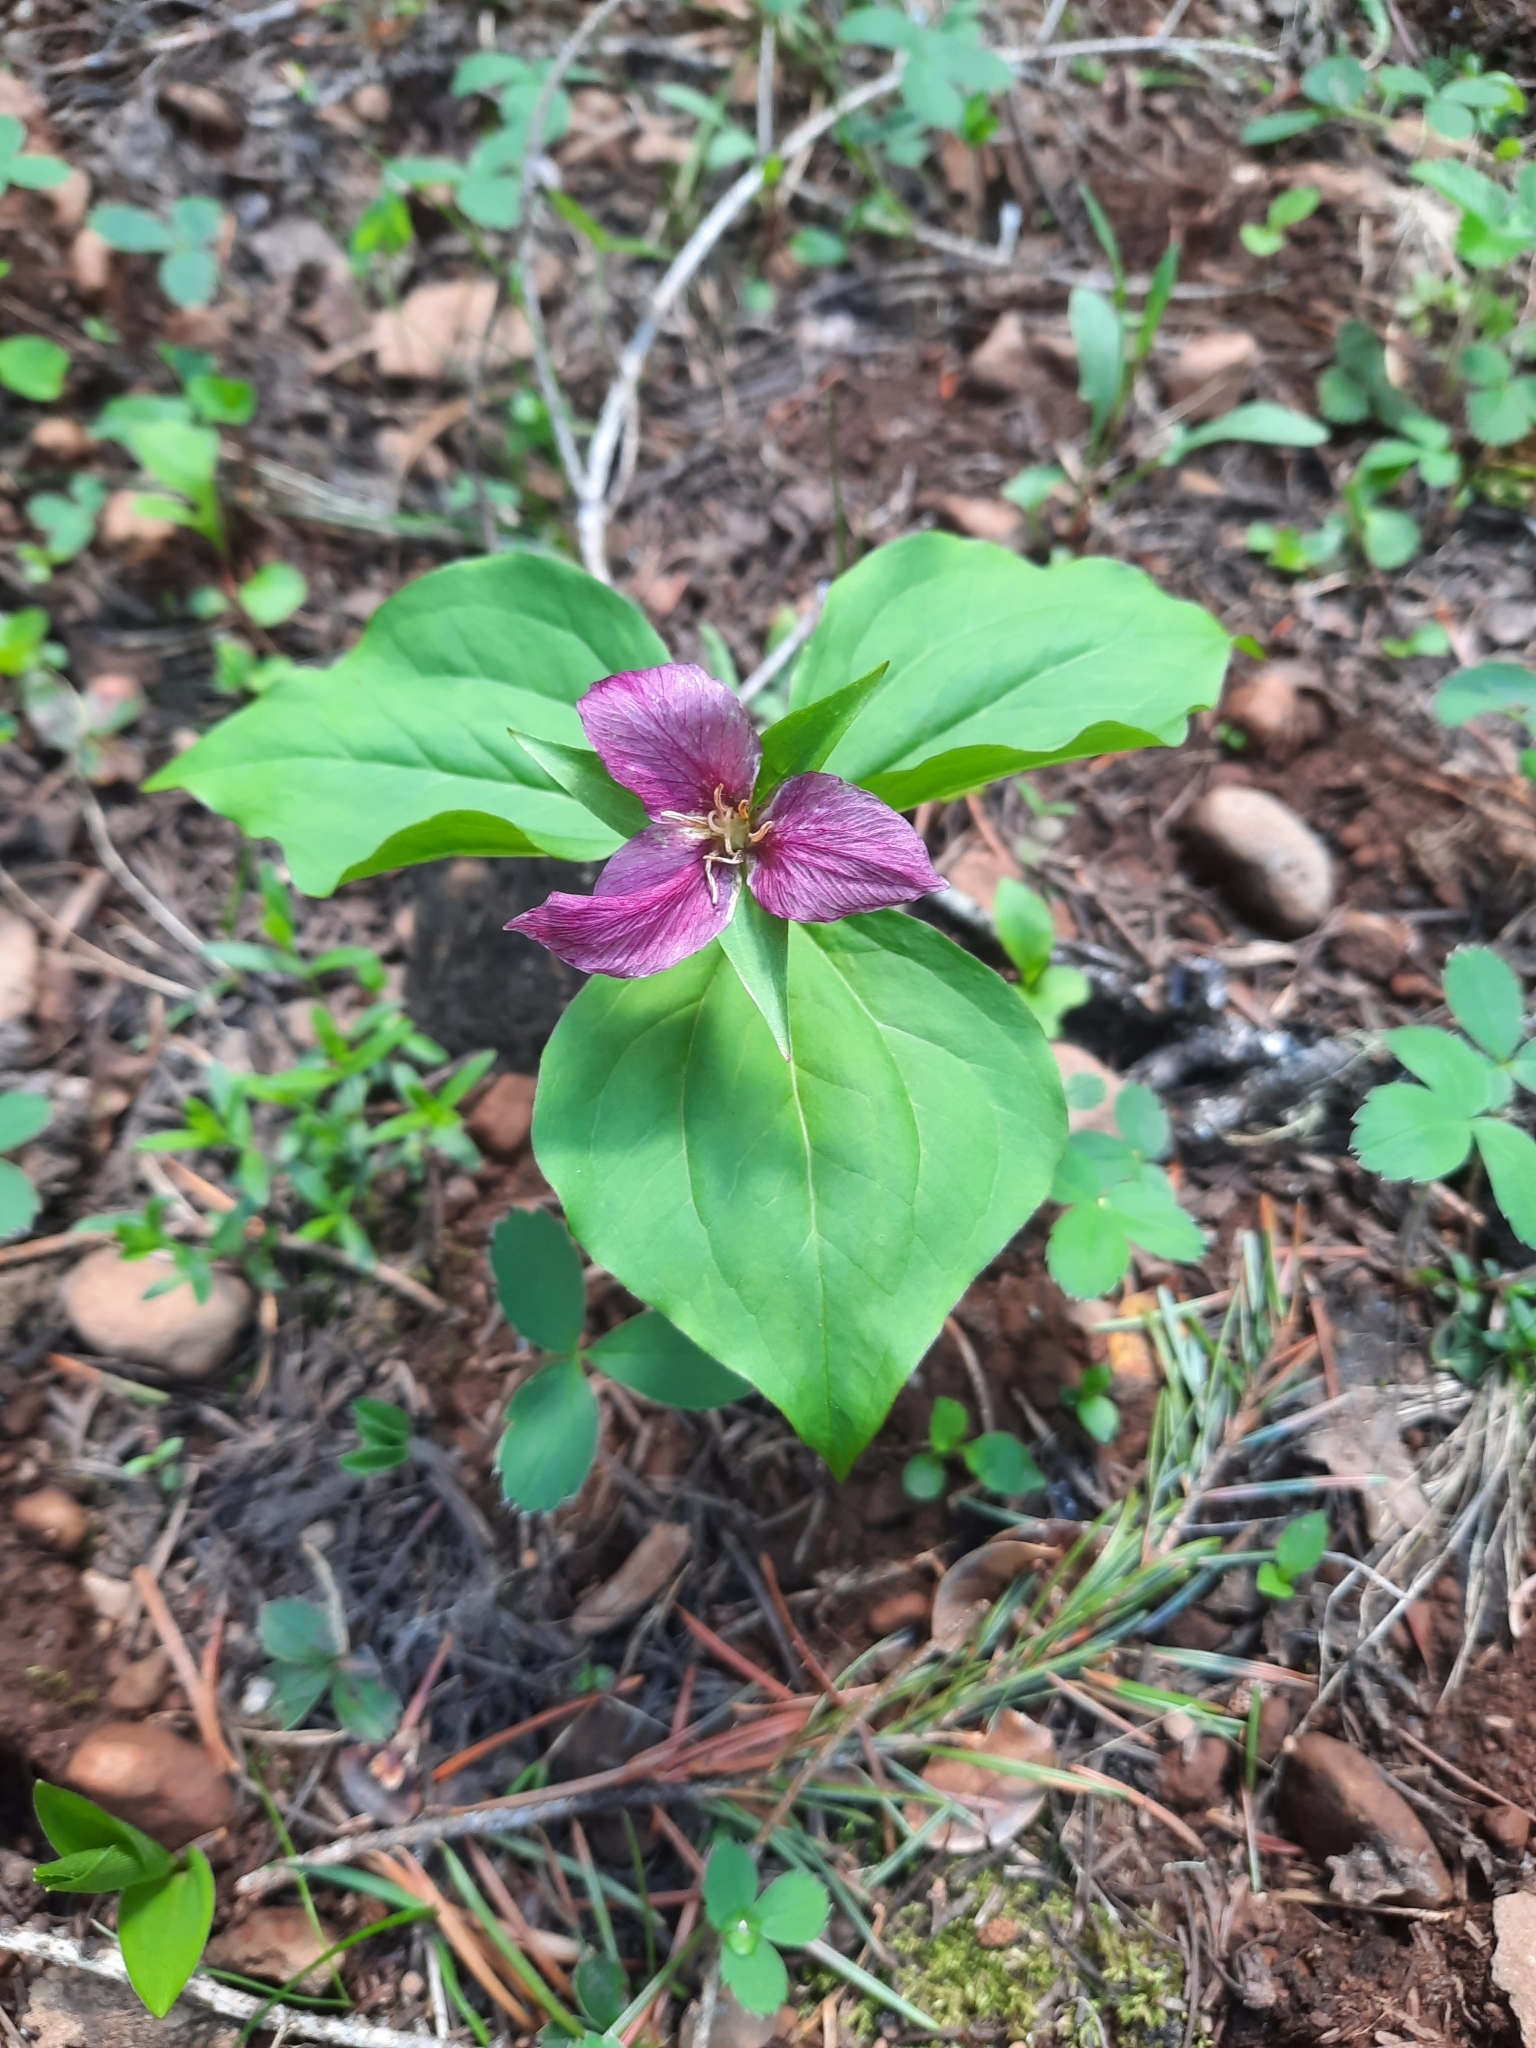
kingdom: Plantae
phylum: Tracheophyta
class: Liliopsida
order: Liliales
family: Melanthiaceae
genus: Trillium
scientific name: Trillium ovatum
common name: Pacific trillium
